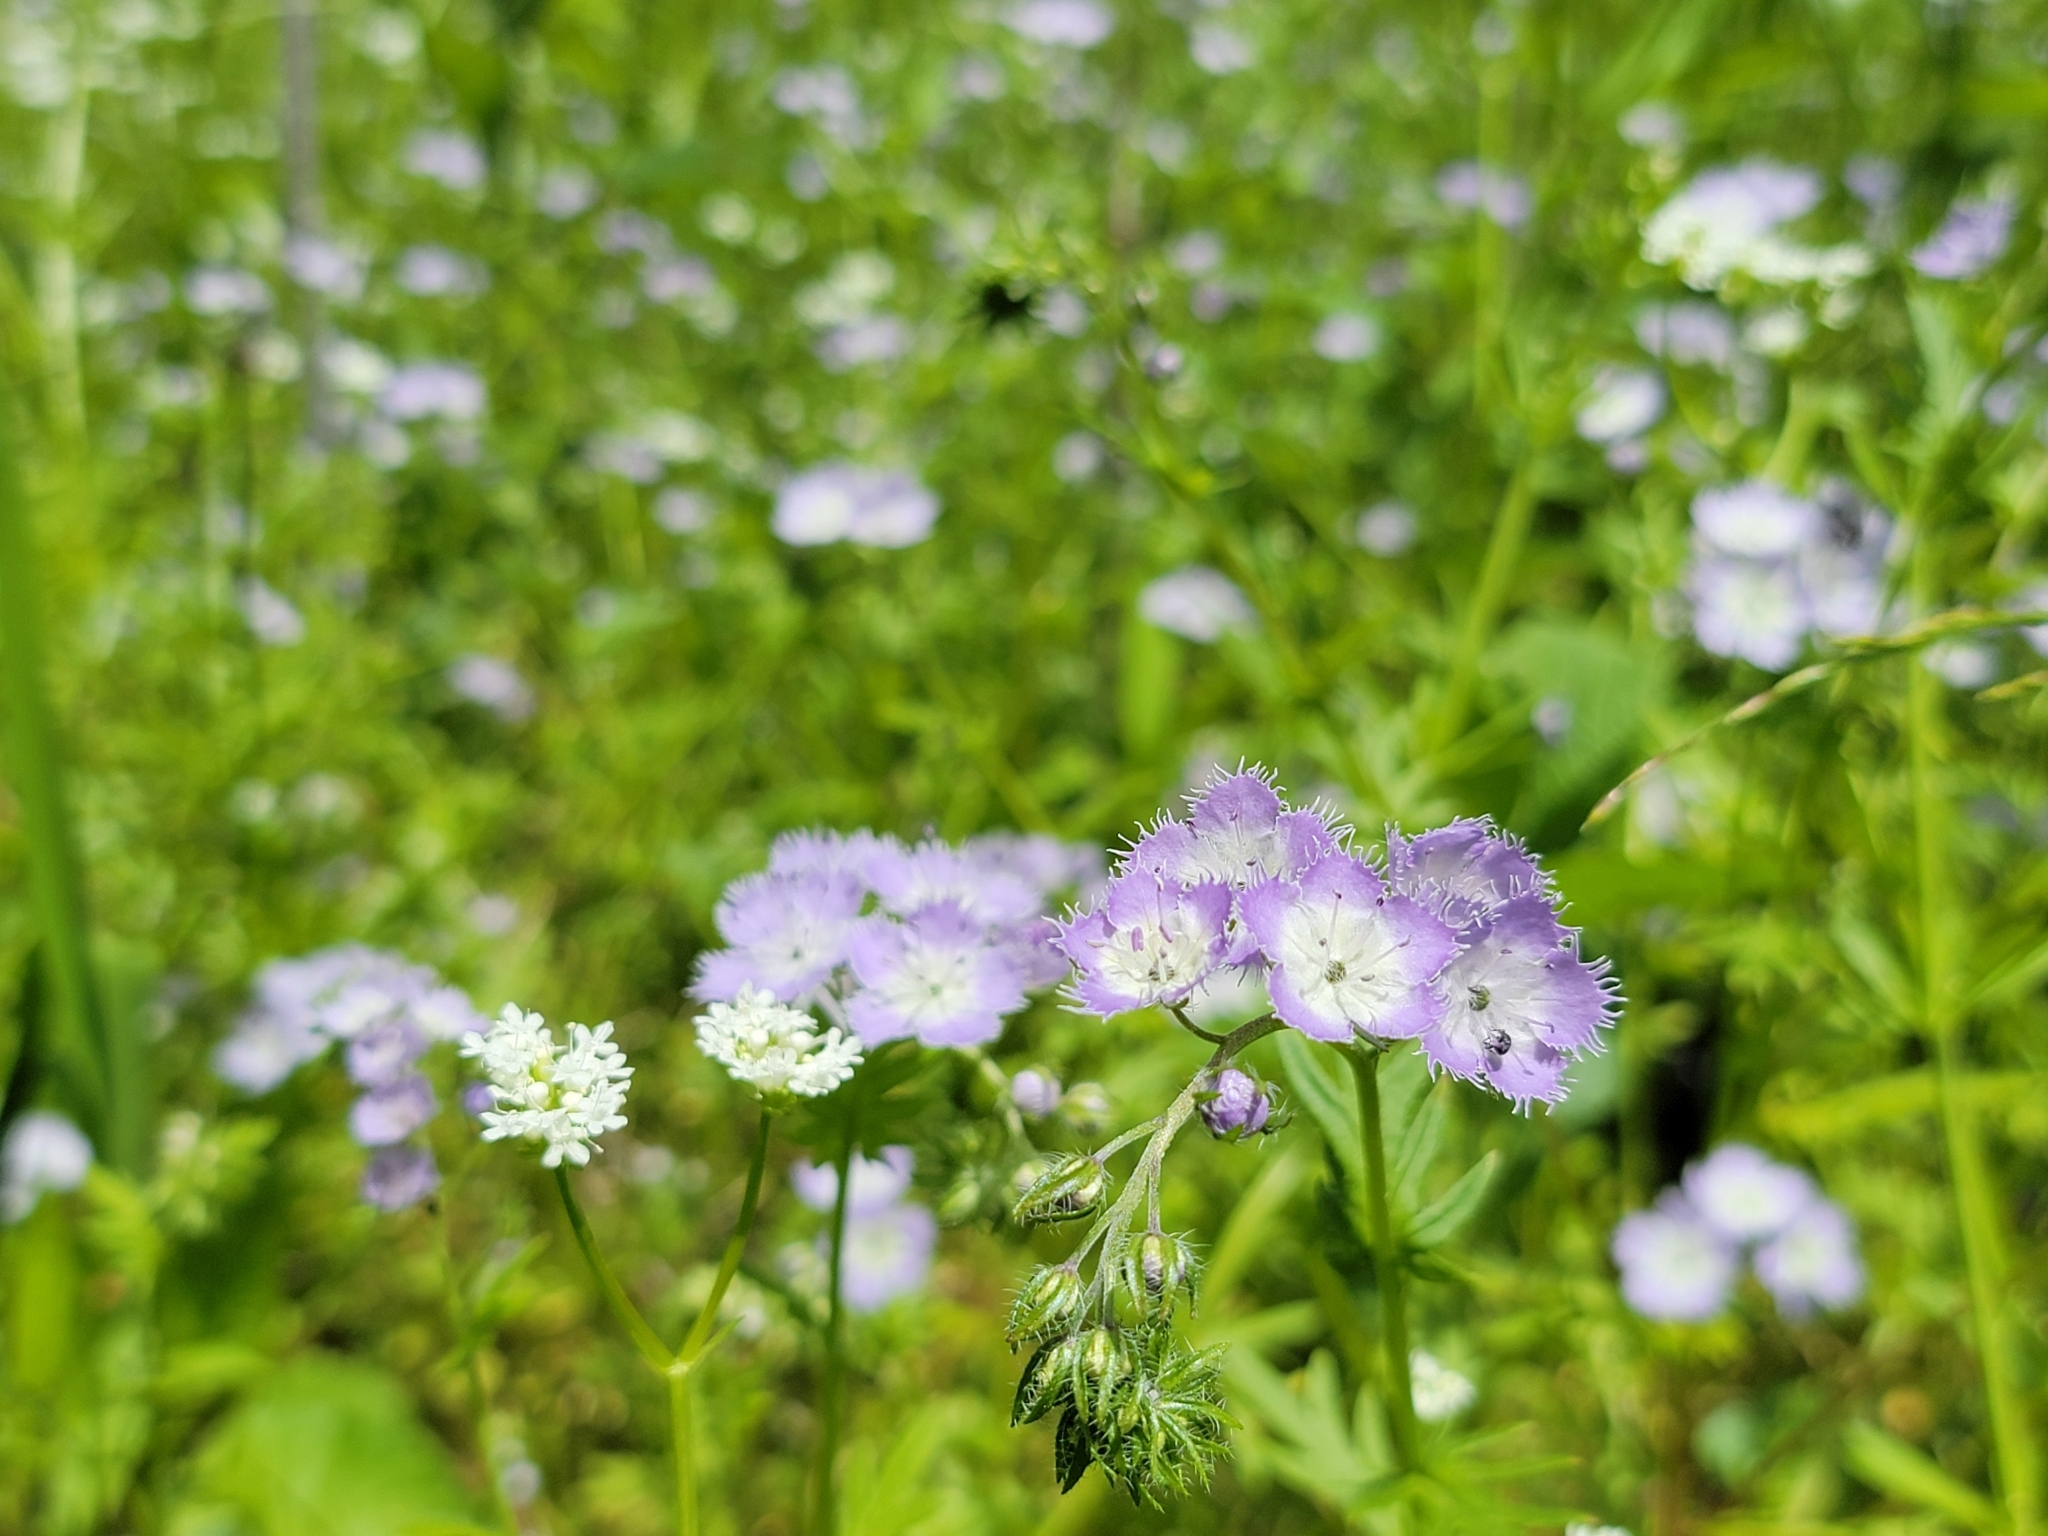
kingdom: Plantae
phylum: Tracheophyta
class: Magnoliopsida
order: Boraginales
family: Hydrophyllaceae
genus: Phacelia
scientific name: Phacelia purshii
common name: Miami-mist
